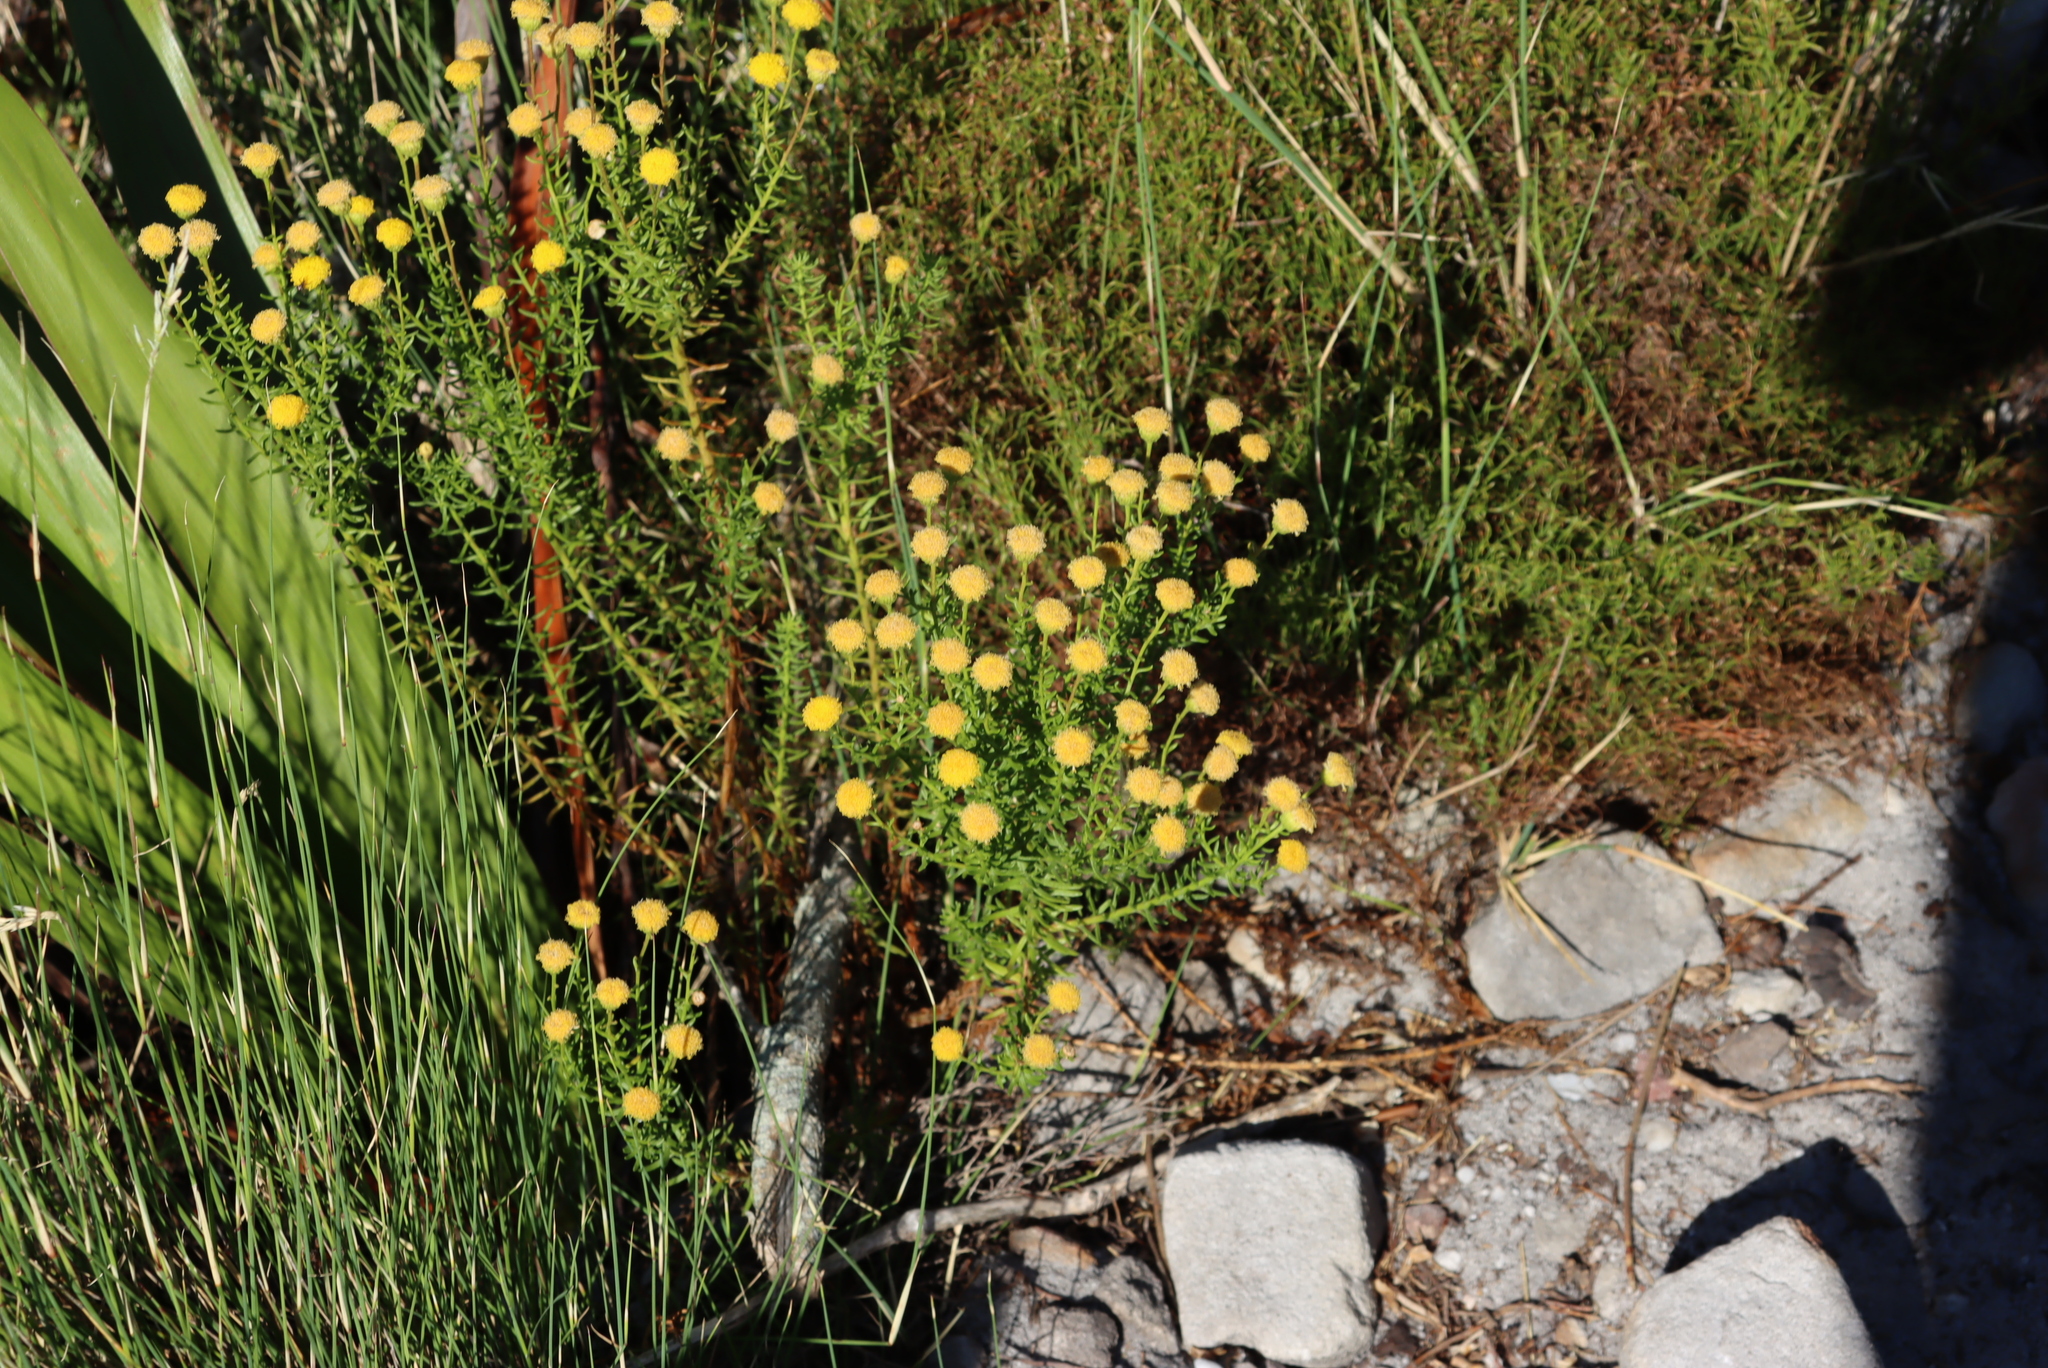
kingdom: Plantae
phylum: Tracheophyta
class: Magnoliopsida
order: Asterales
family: Asteraceae
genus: Chrysocoma
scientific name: Chrysocoma cernua
